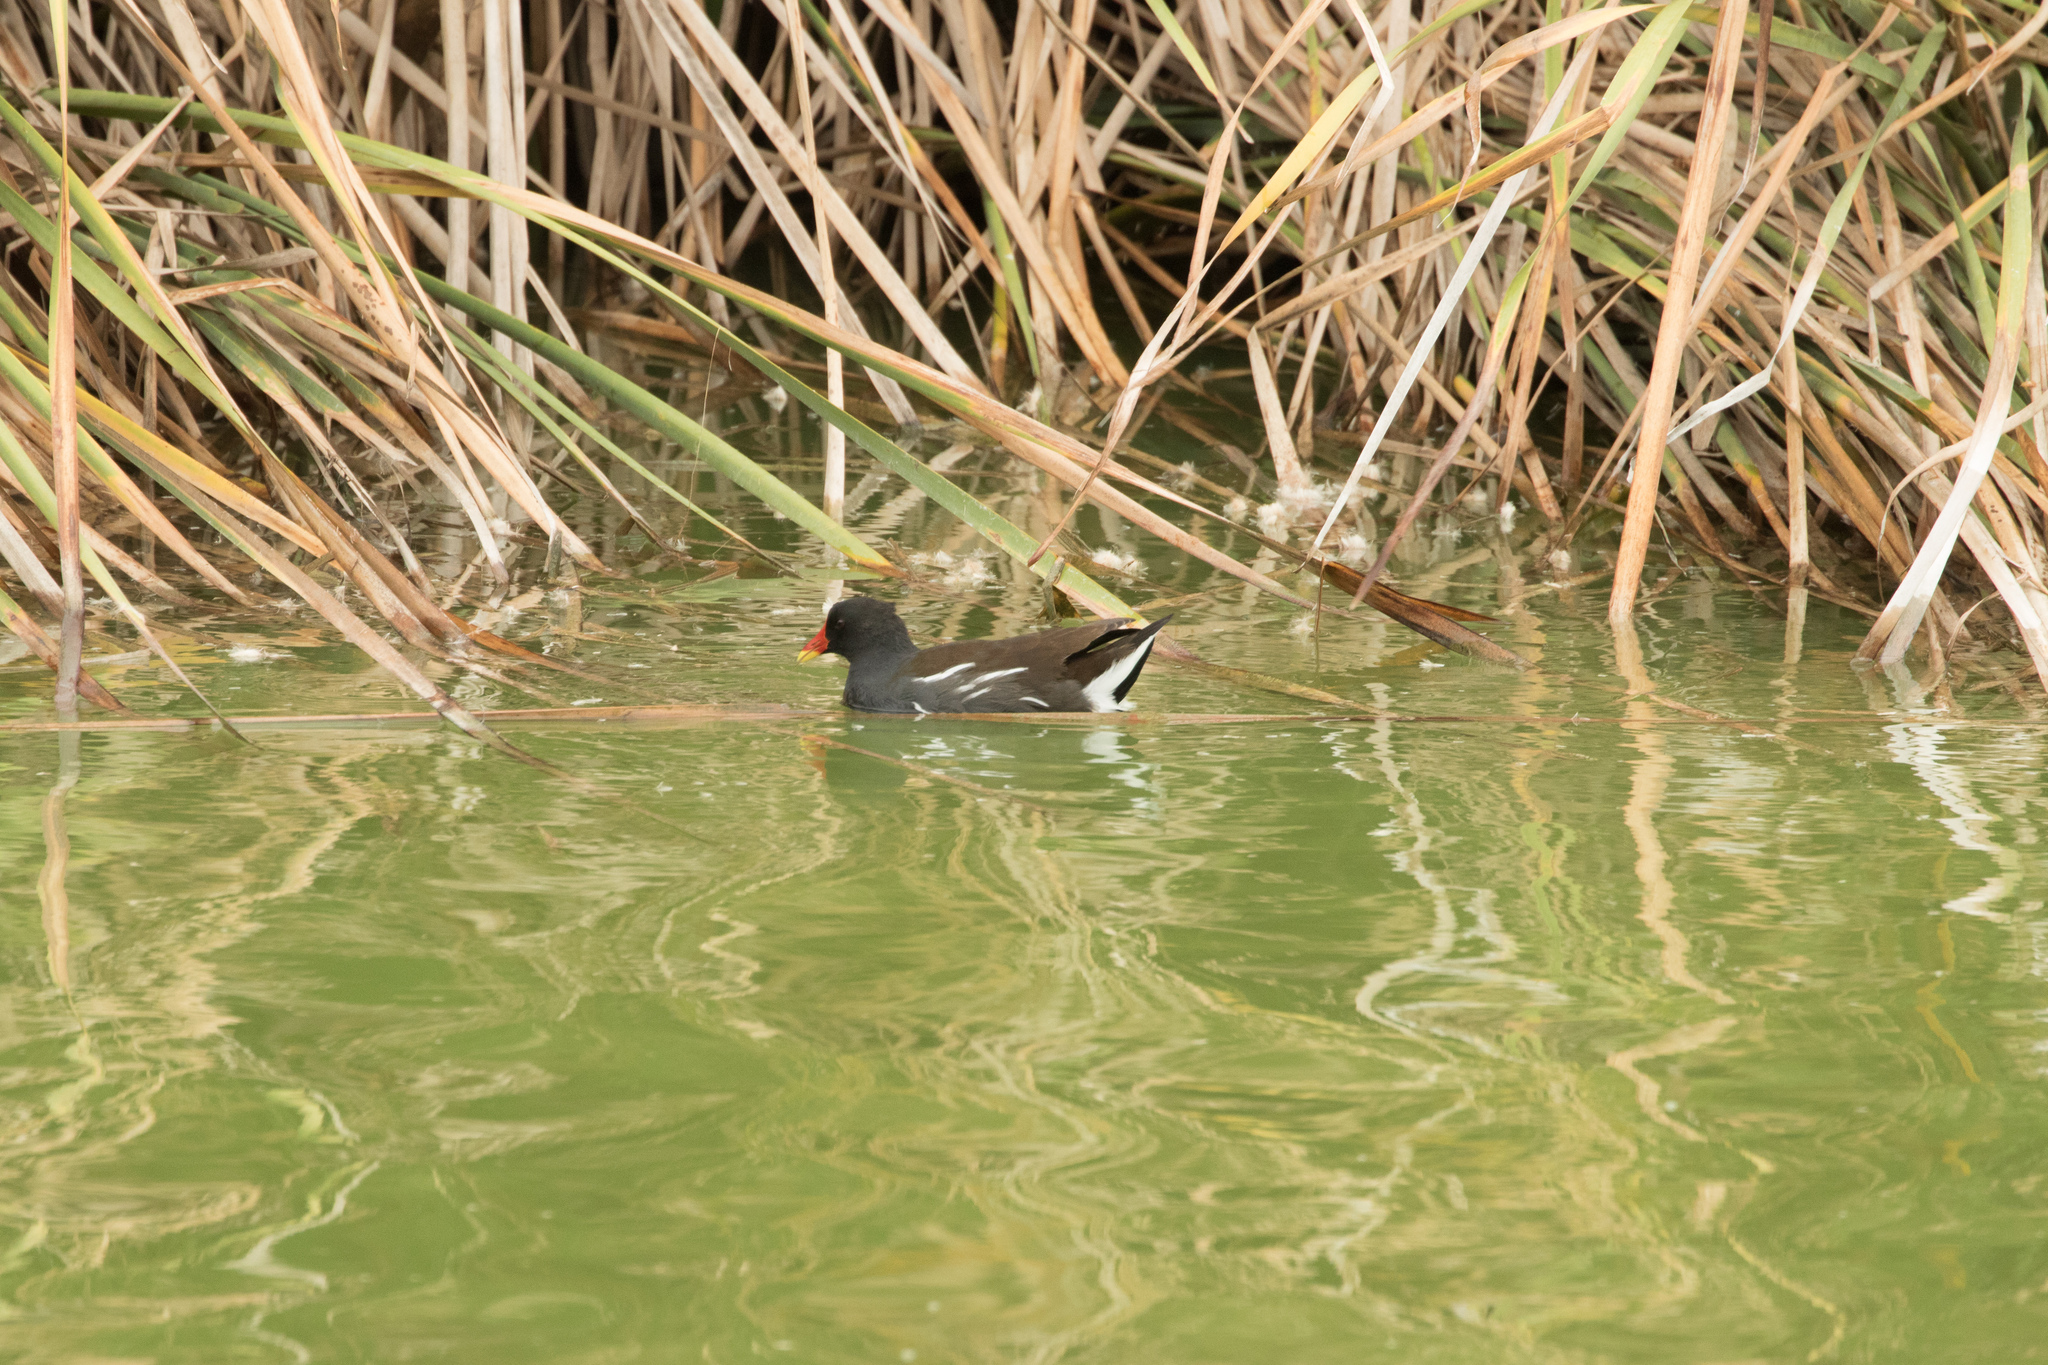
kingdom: Animalia
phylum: Chordata
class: Aves
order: Gruiformes
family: Rallidae
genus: Gallinula
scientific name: Gallinula chloropus
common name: Common moorhen
